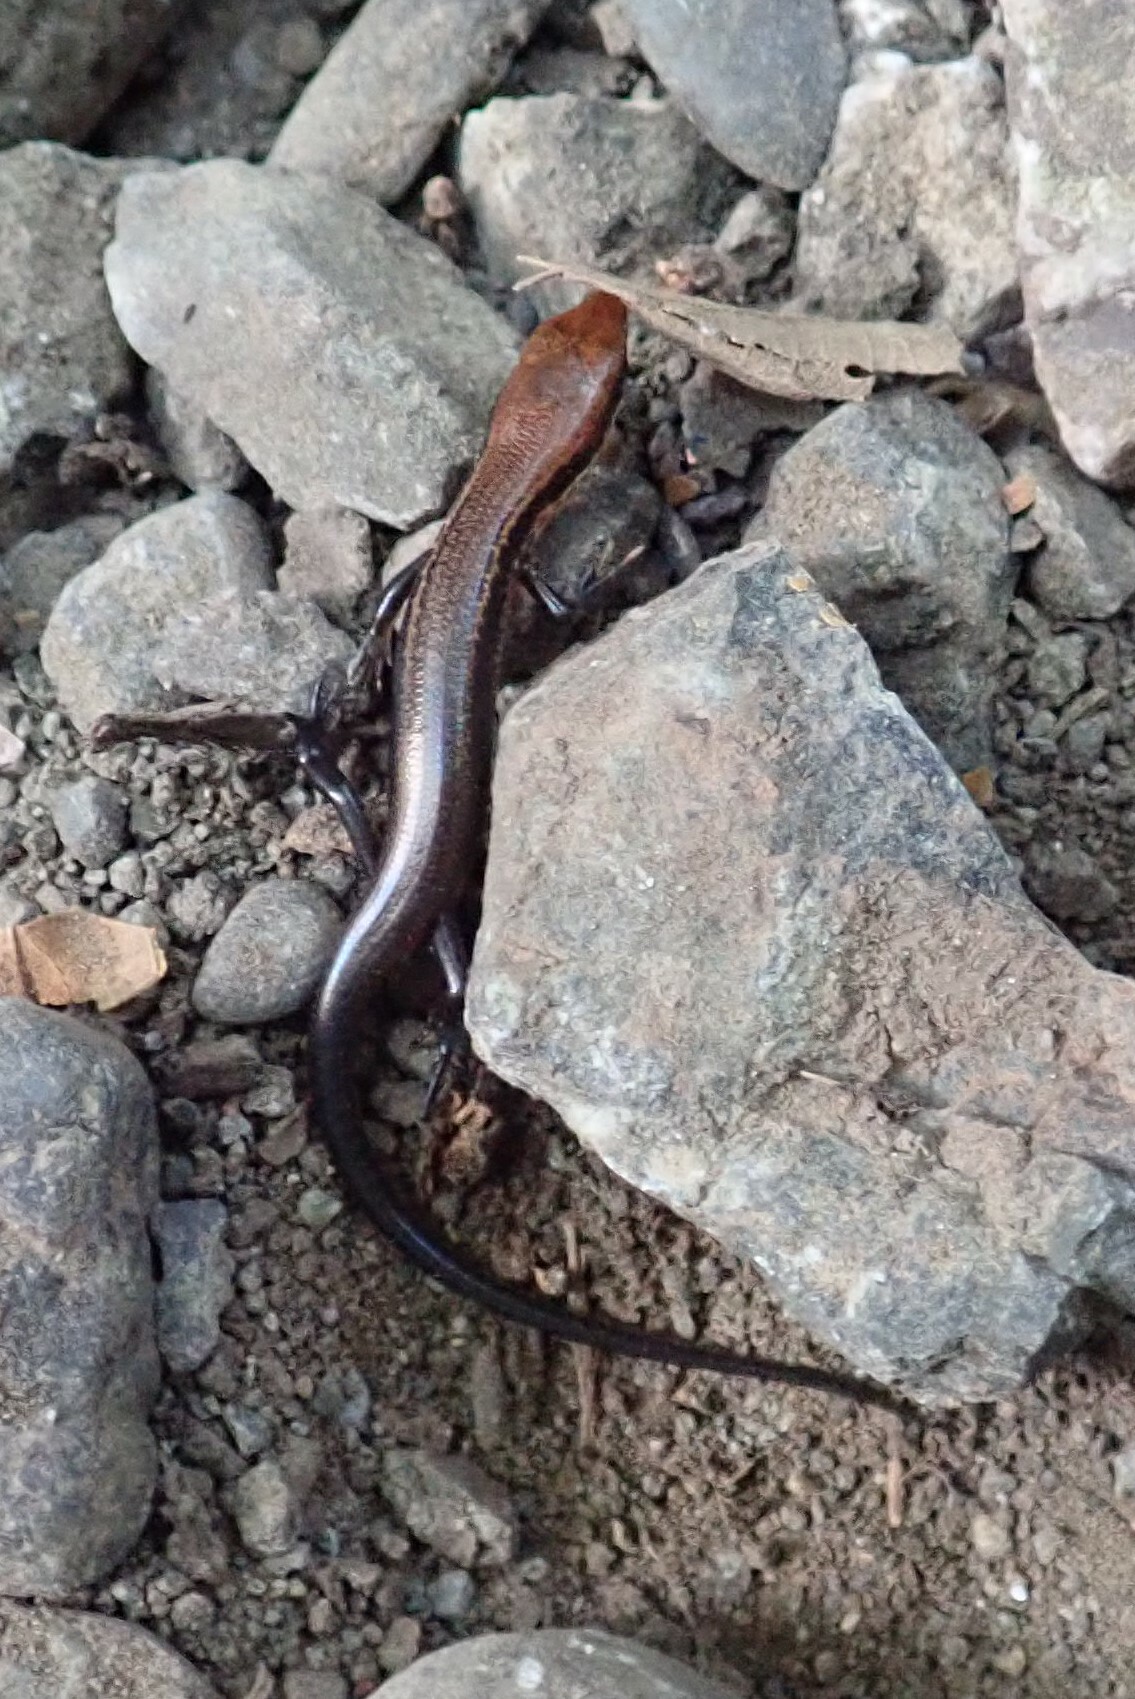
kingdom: Animalia
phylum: Chordata
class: Squamata
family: Scincidae
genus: Scincella
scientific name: Scincella cherriei
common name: Brown forest skink
